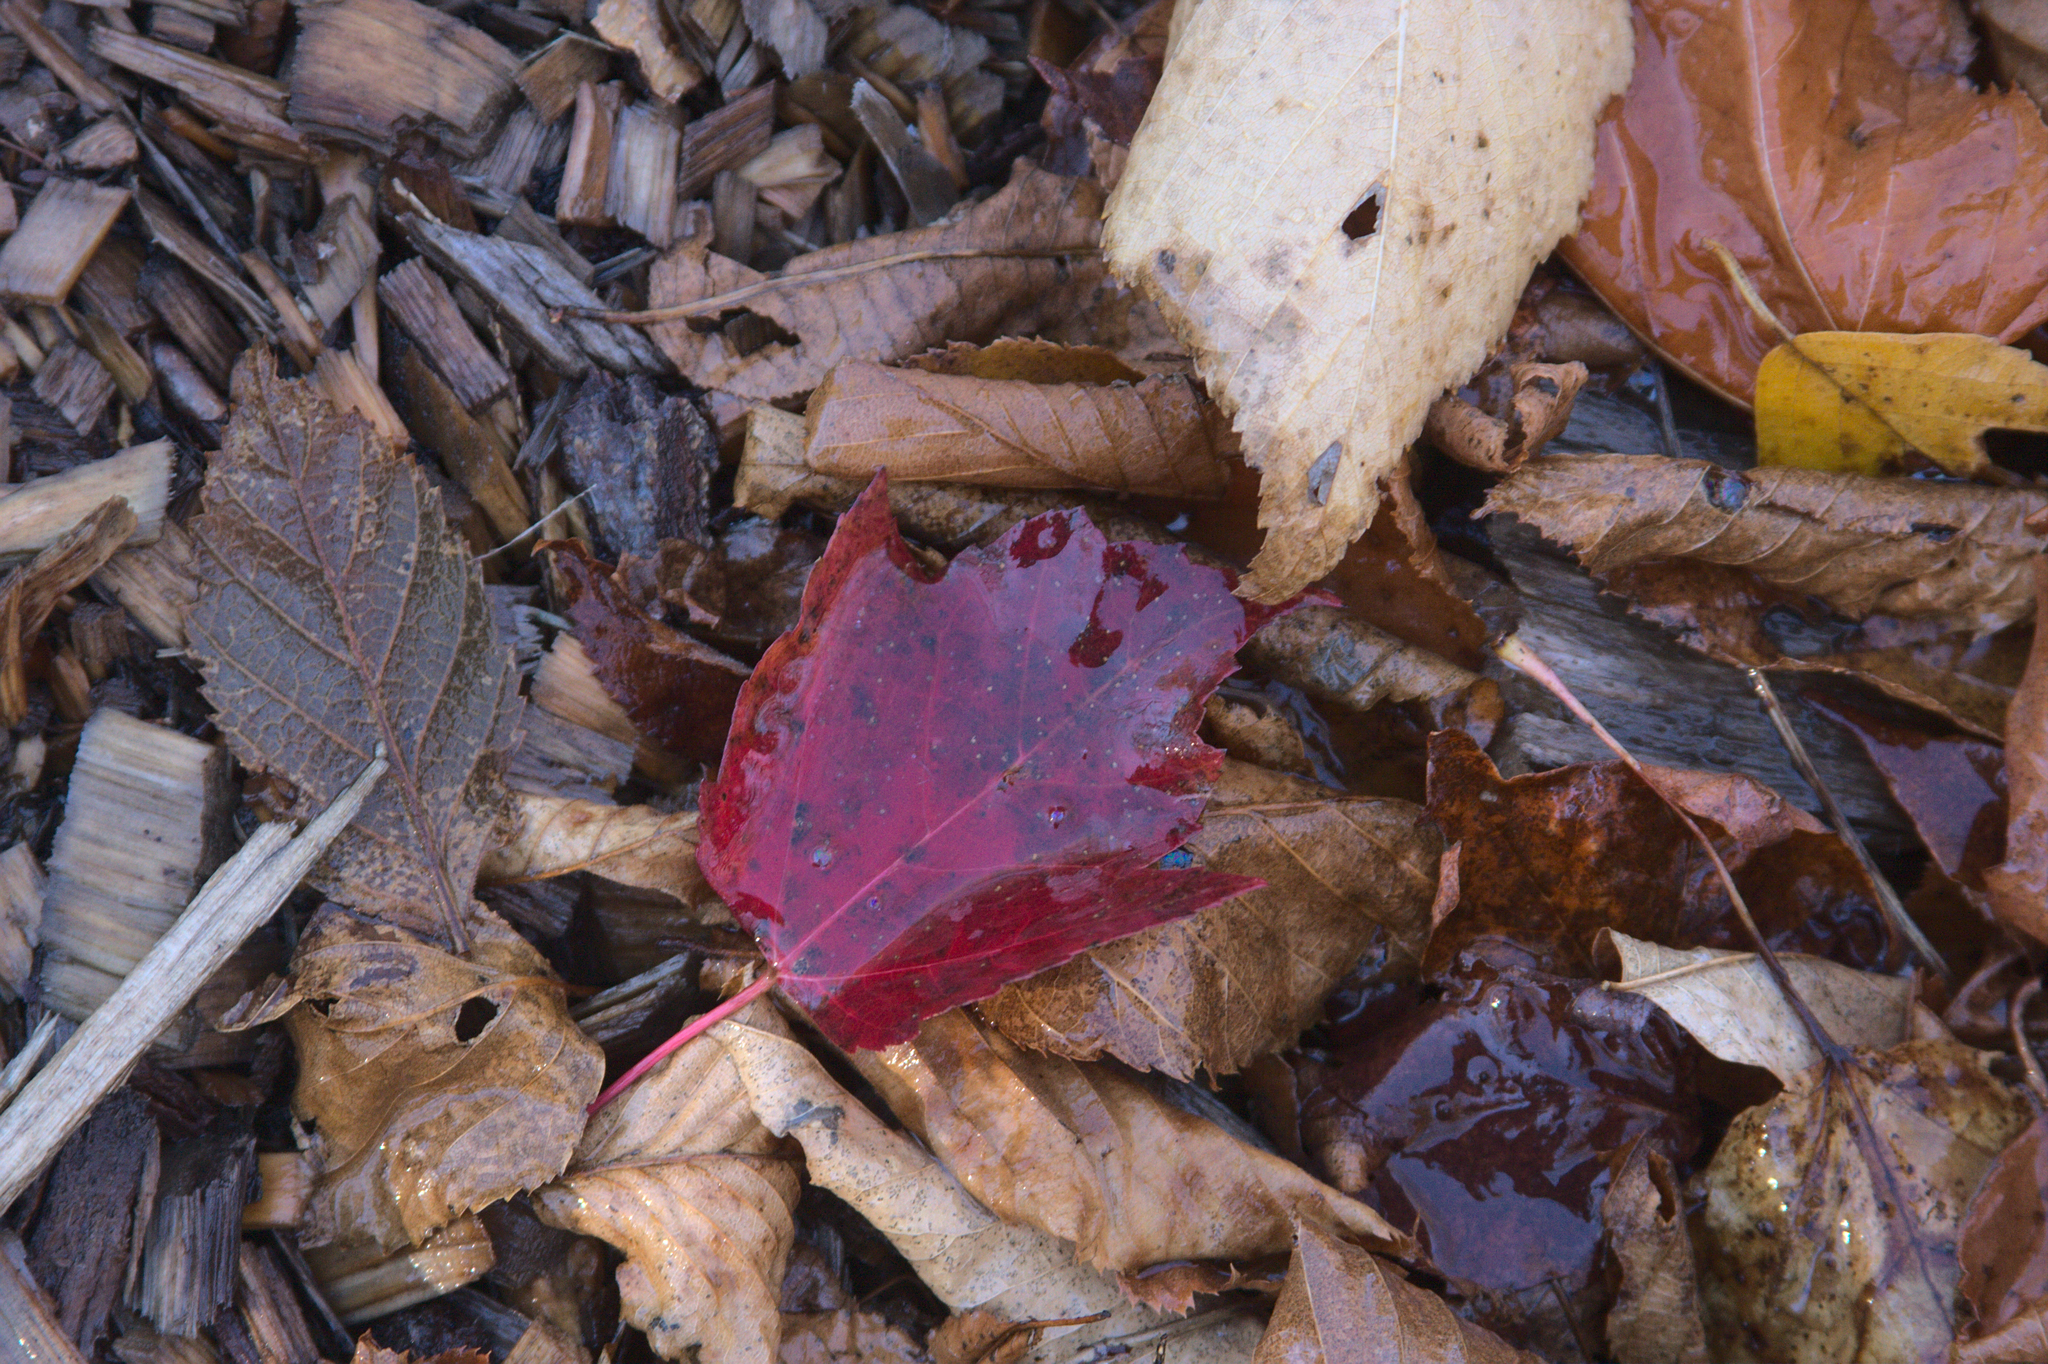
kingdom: Plantae
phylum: Tracheophyta
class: Magnoliopsida
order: Sapindales
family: Sapindaceae
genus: Acer
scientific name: Acer rubrum
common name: Red maple
